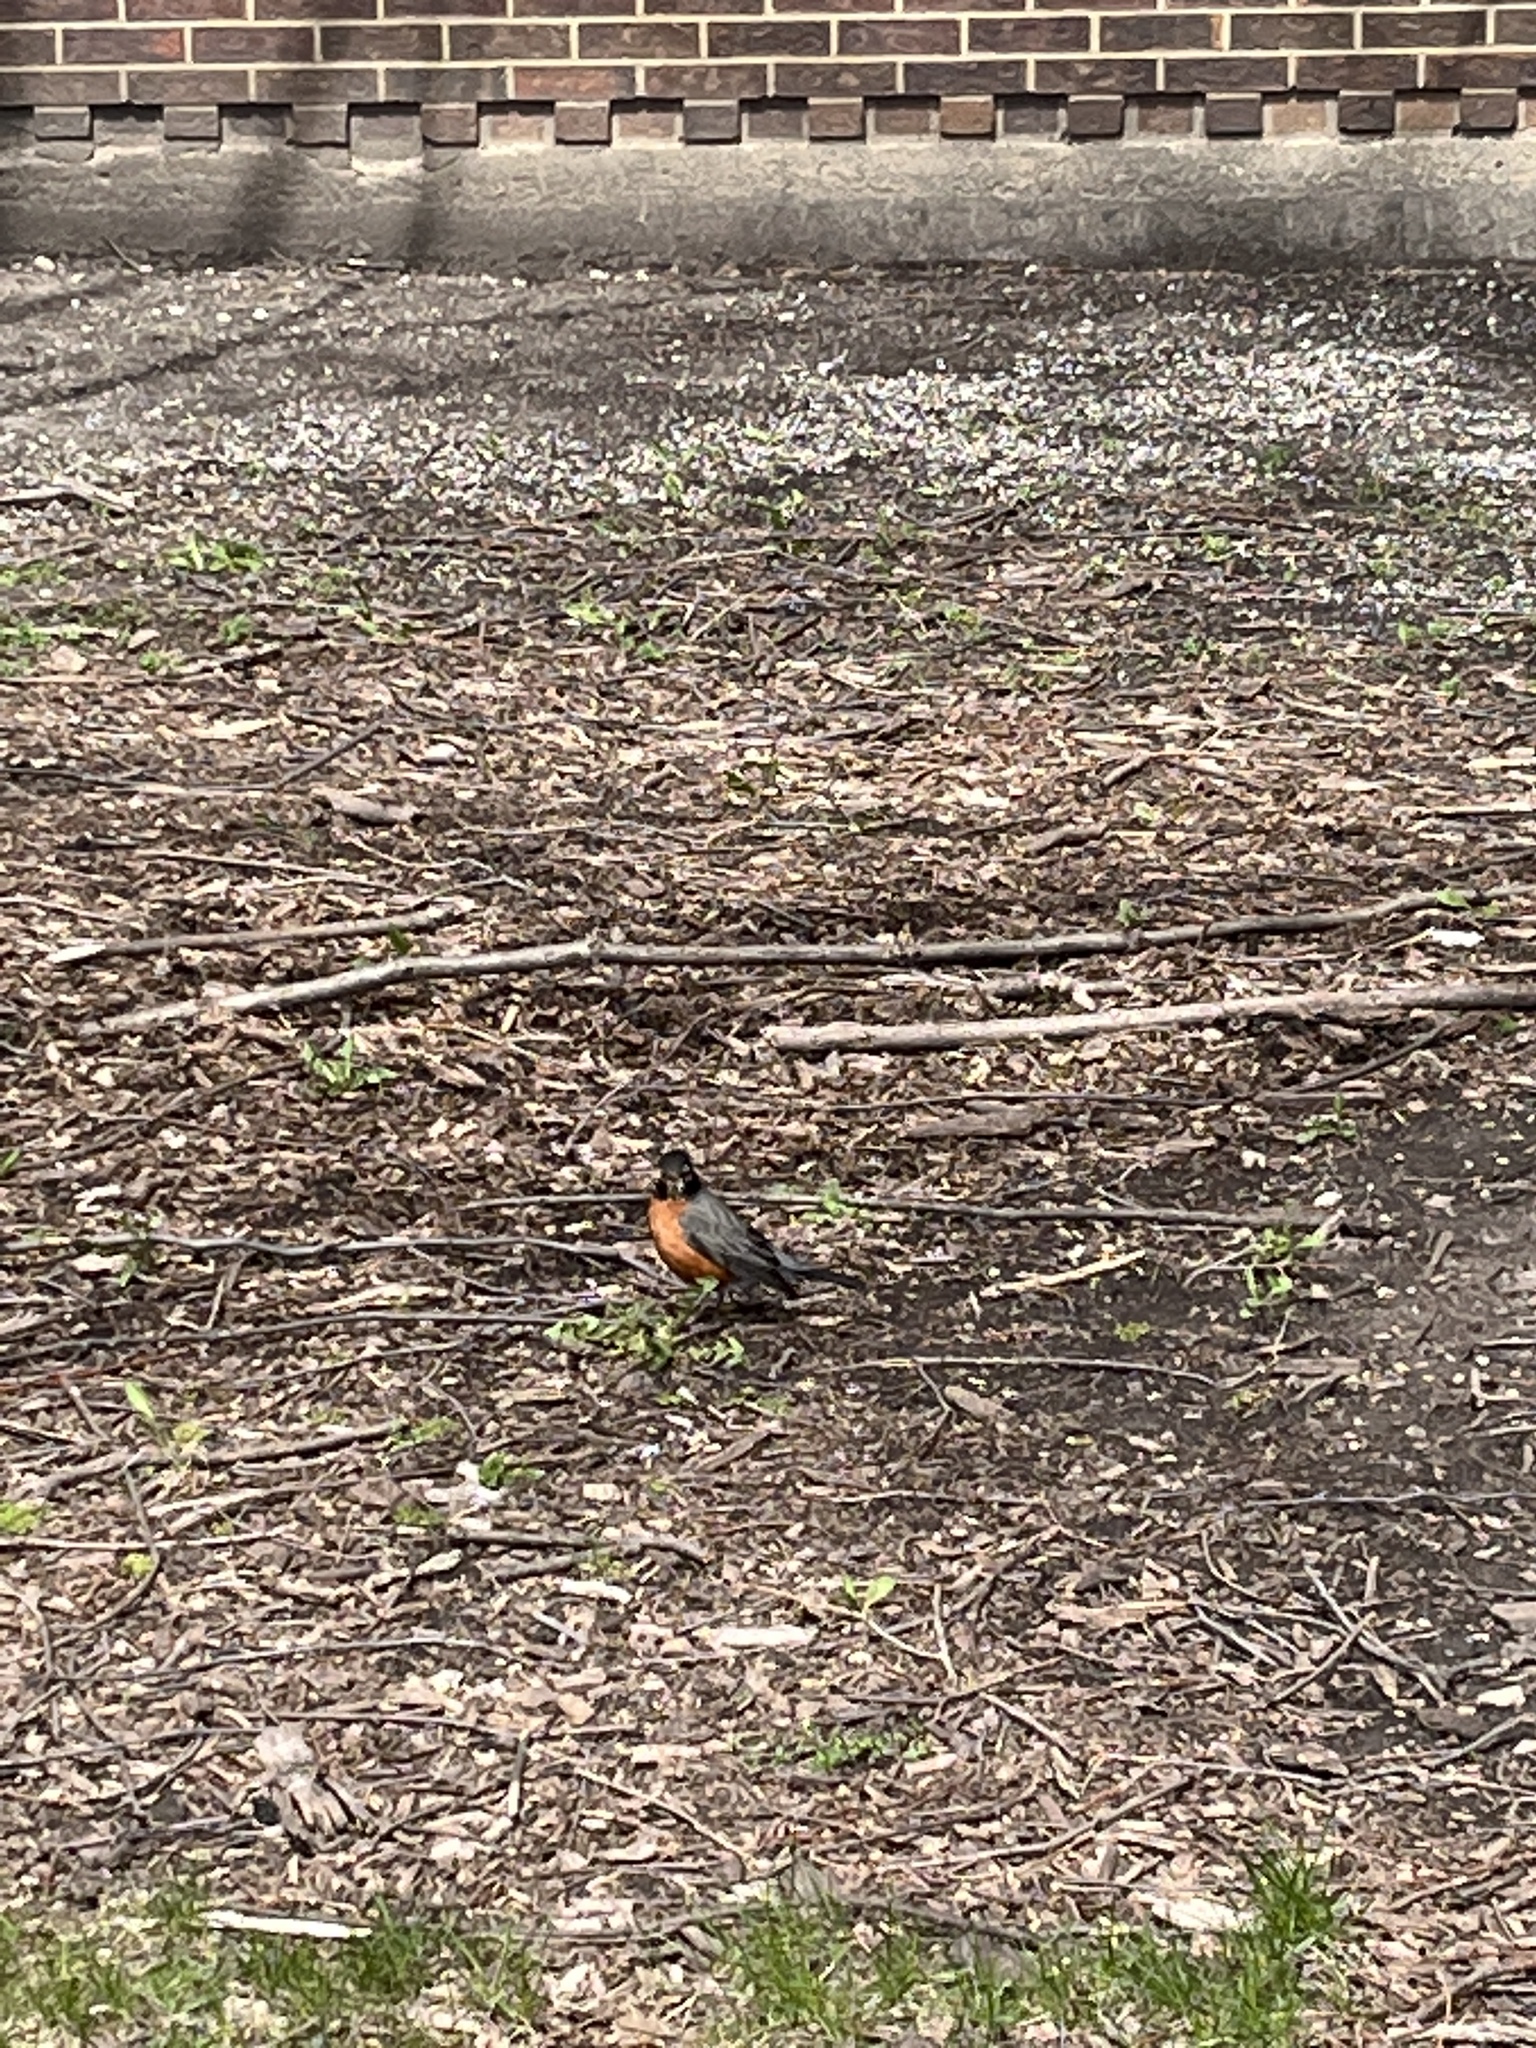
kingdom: Animalia
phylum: Chordata
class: Aves
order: Passeriformes
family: Turdidae
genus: Turdus
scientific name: Turdus migratorius
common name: American robin
